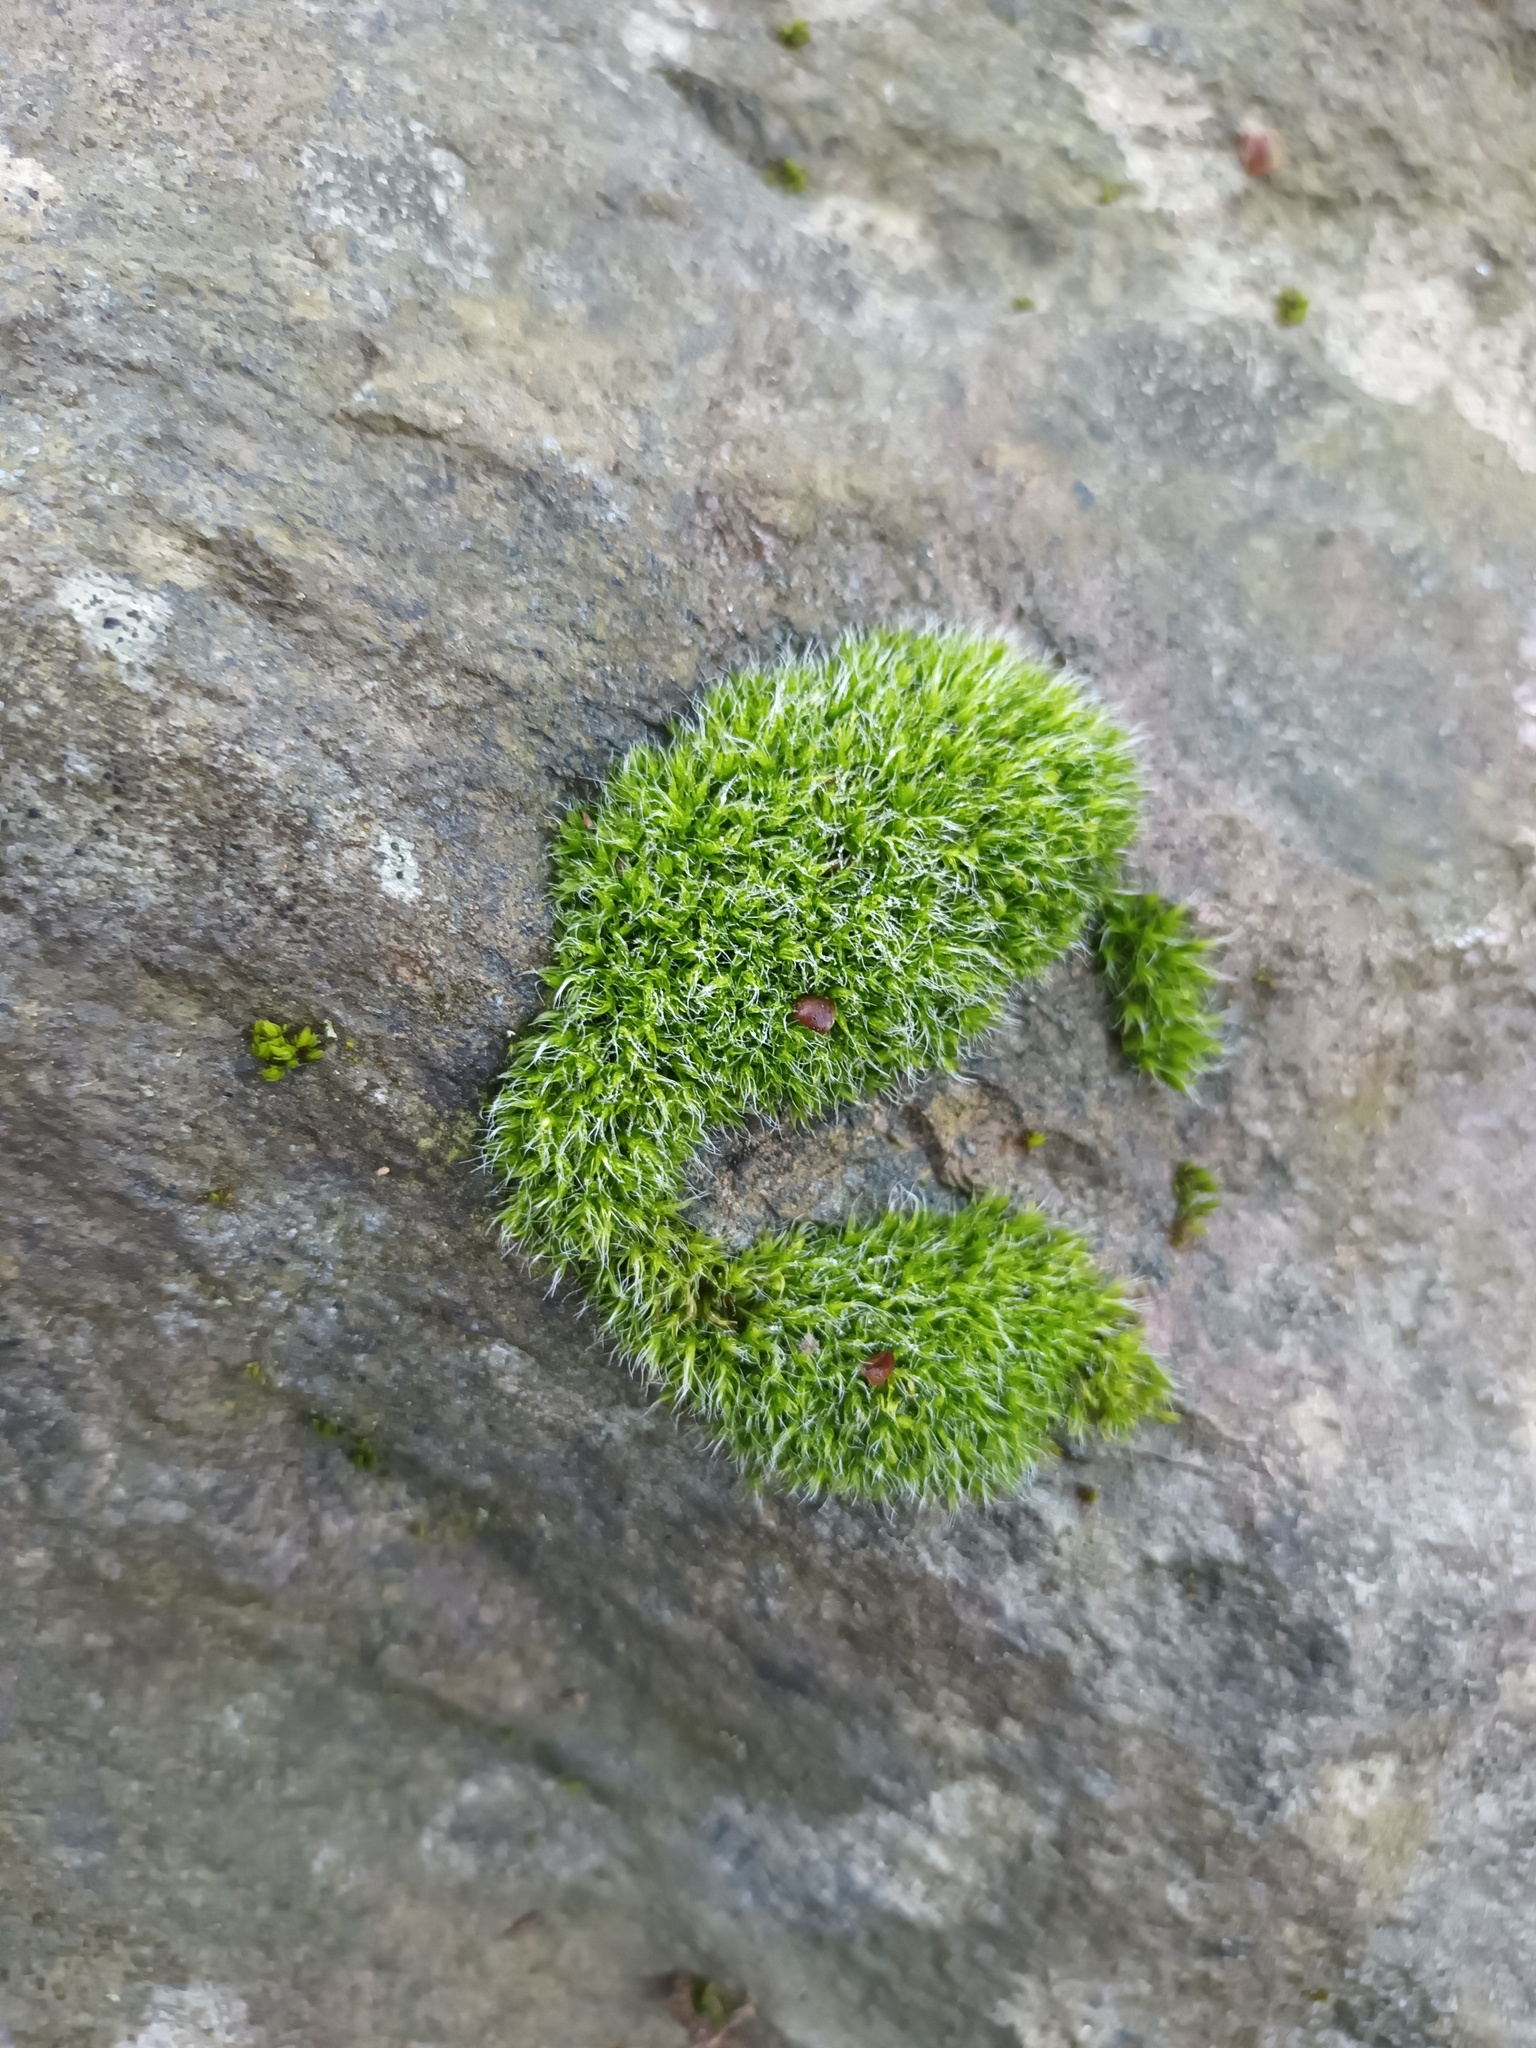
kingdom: Plantae
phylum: Bryophyta
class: Bryopsida
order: Grimmiales
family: Grimmiaceae
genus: Grimmia
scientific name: Grimmia pulvinata
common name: Grey-cushioned grimmia
